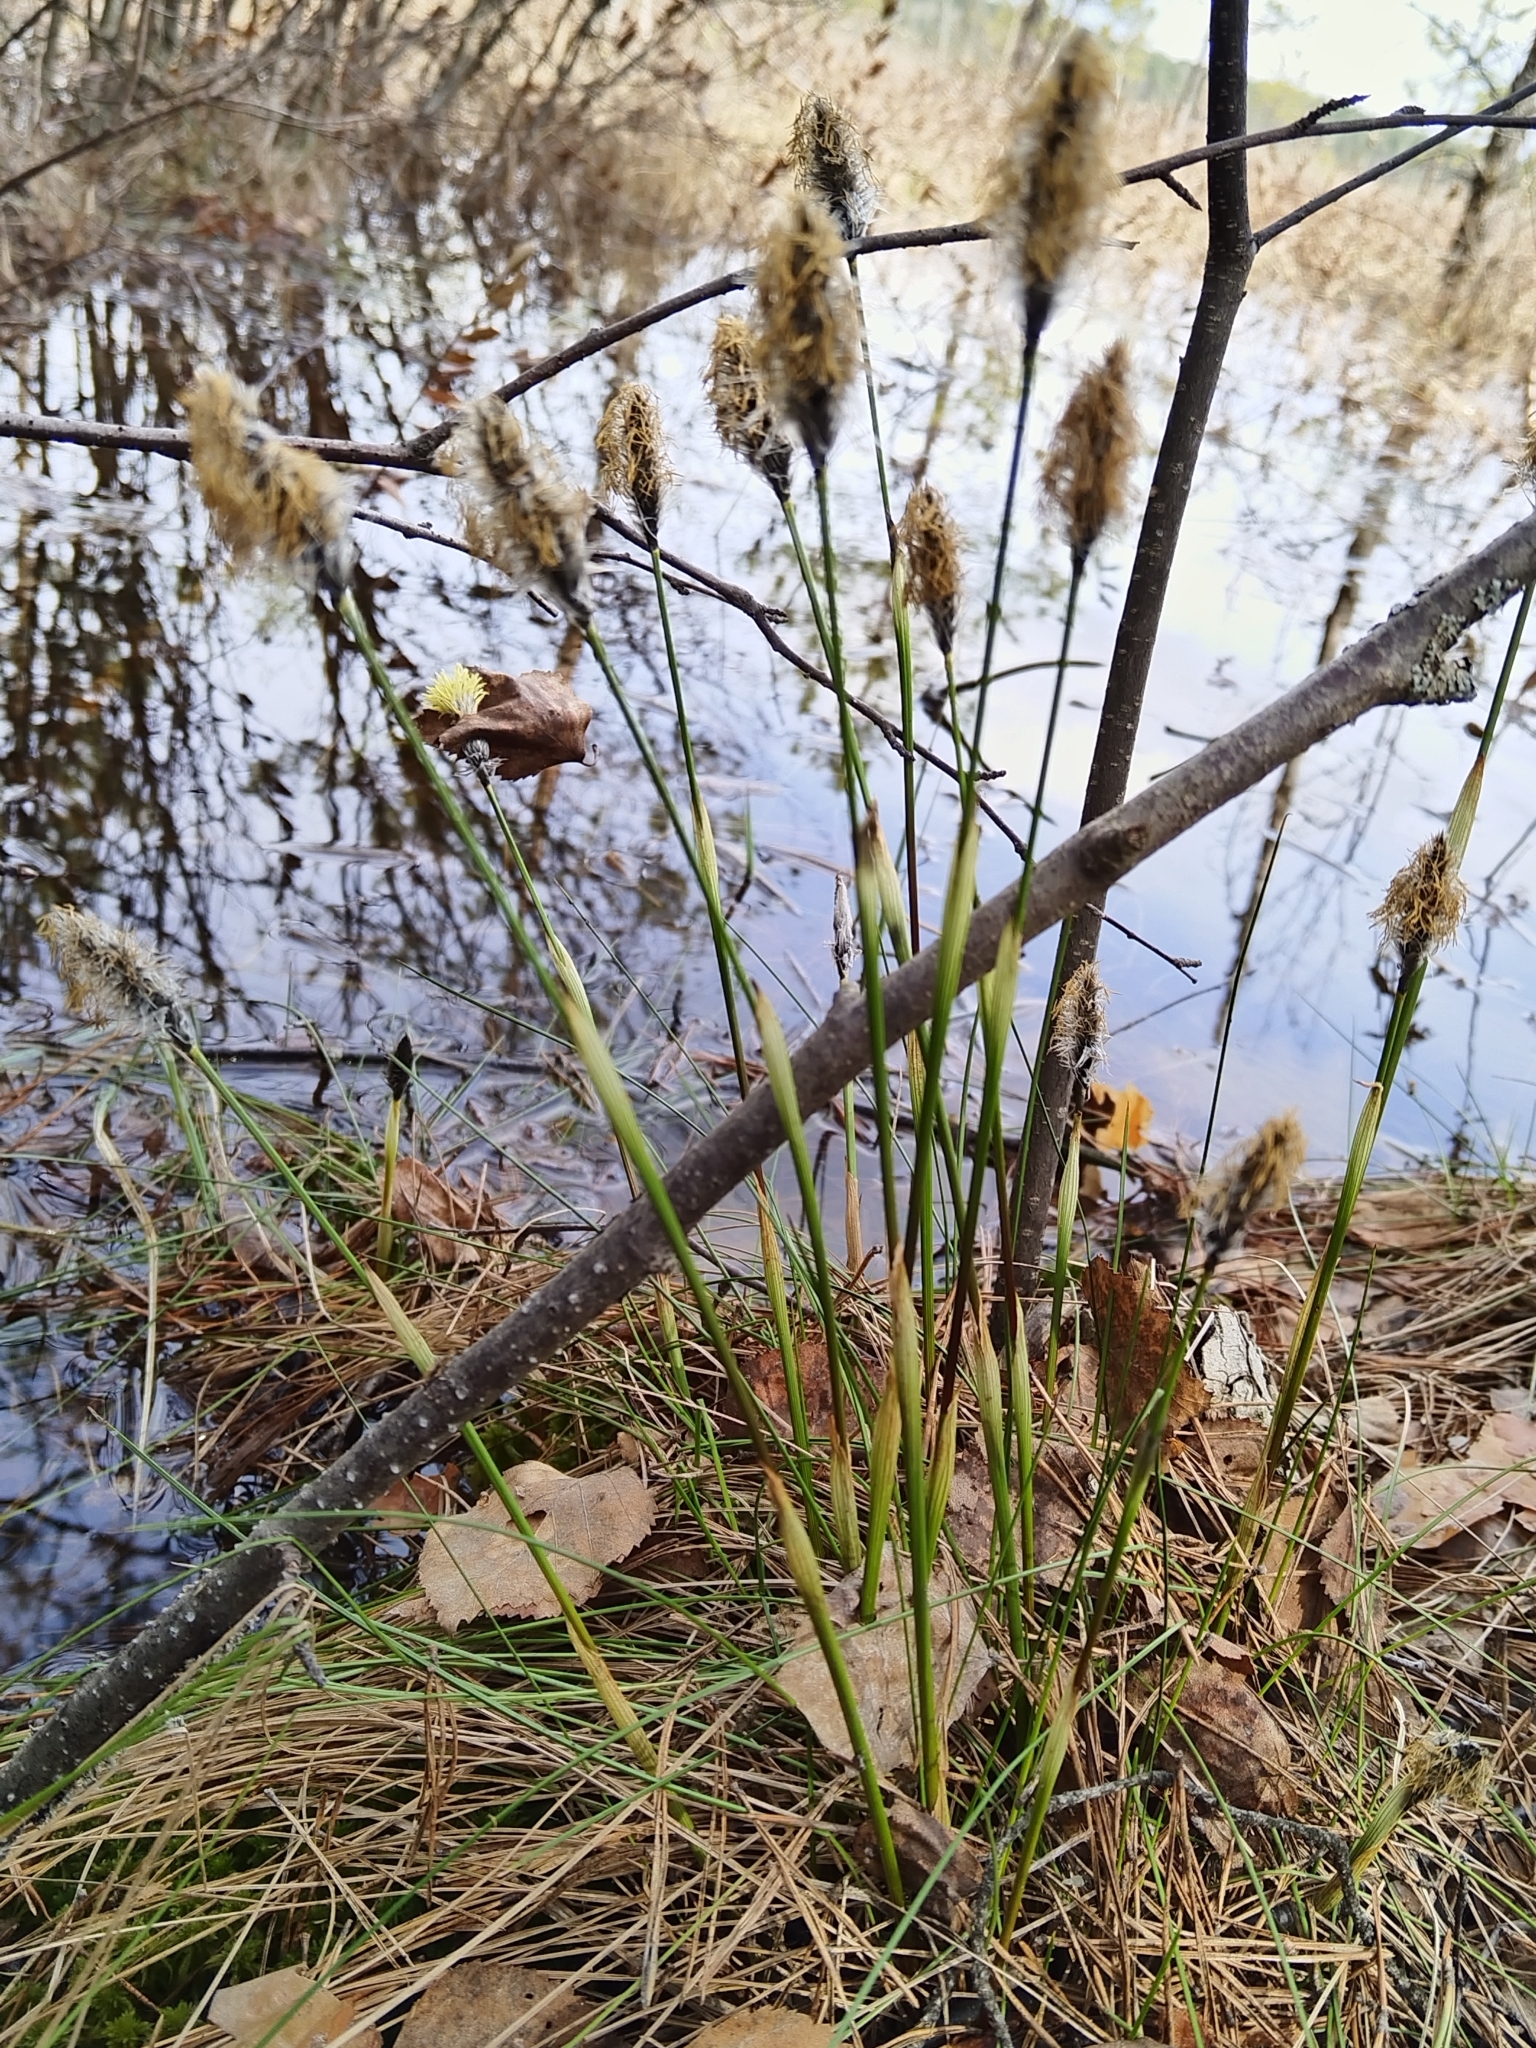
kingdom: Plantae
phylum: Tracheophyta
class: Liliopsida
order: Poales
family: Cyperaceae
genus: Eriophorum
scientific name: Eriophorum vaginatum
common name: Hare's-tail cottongrass
